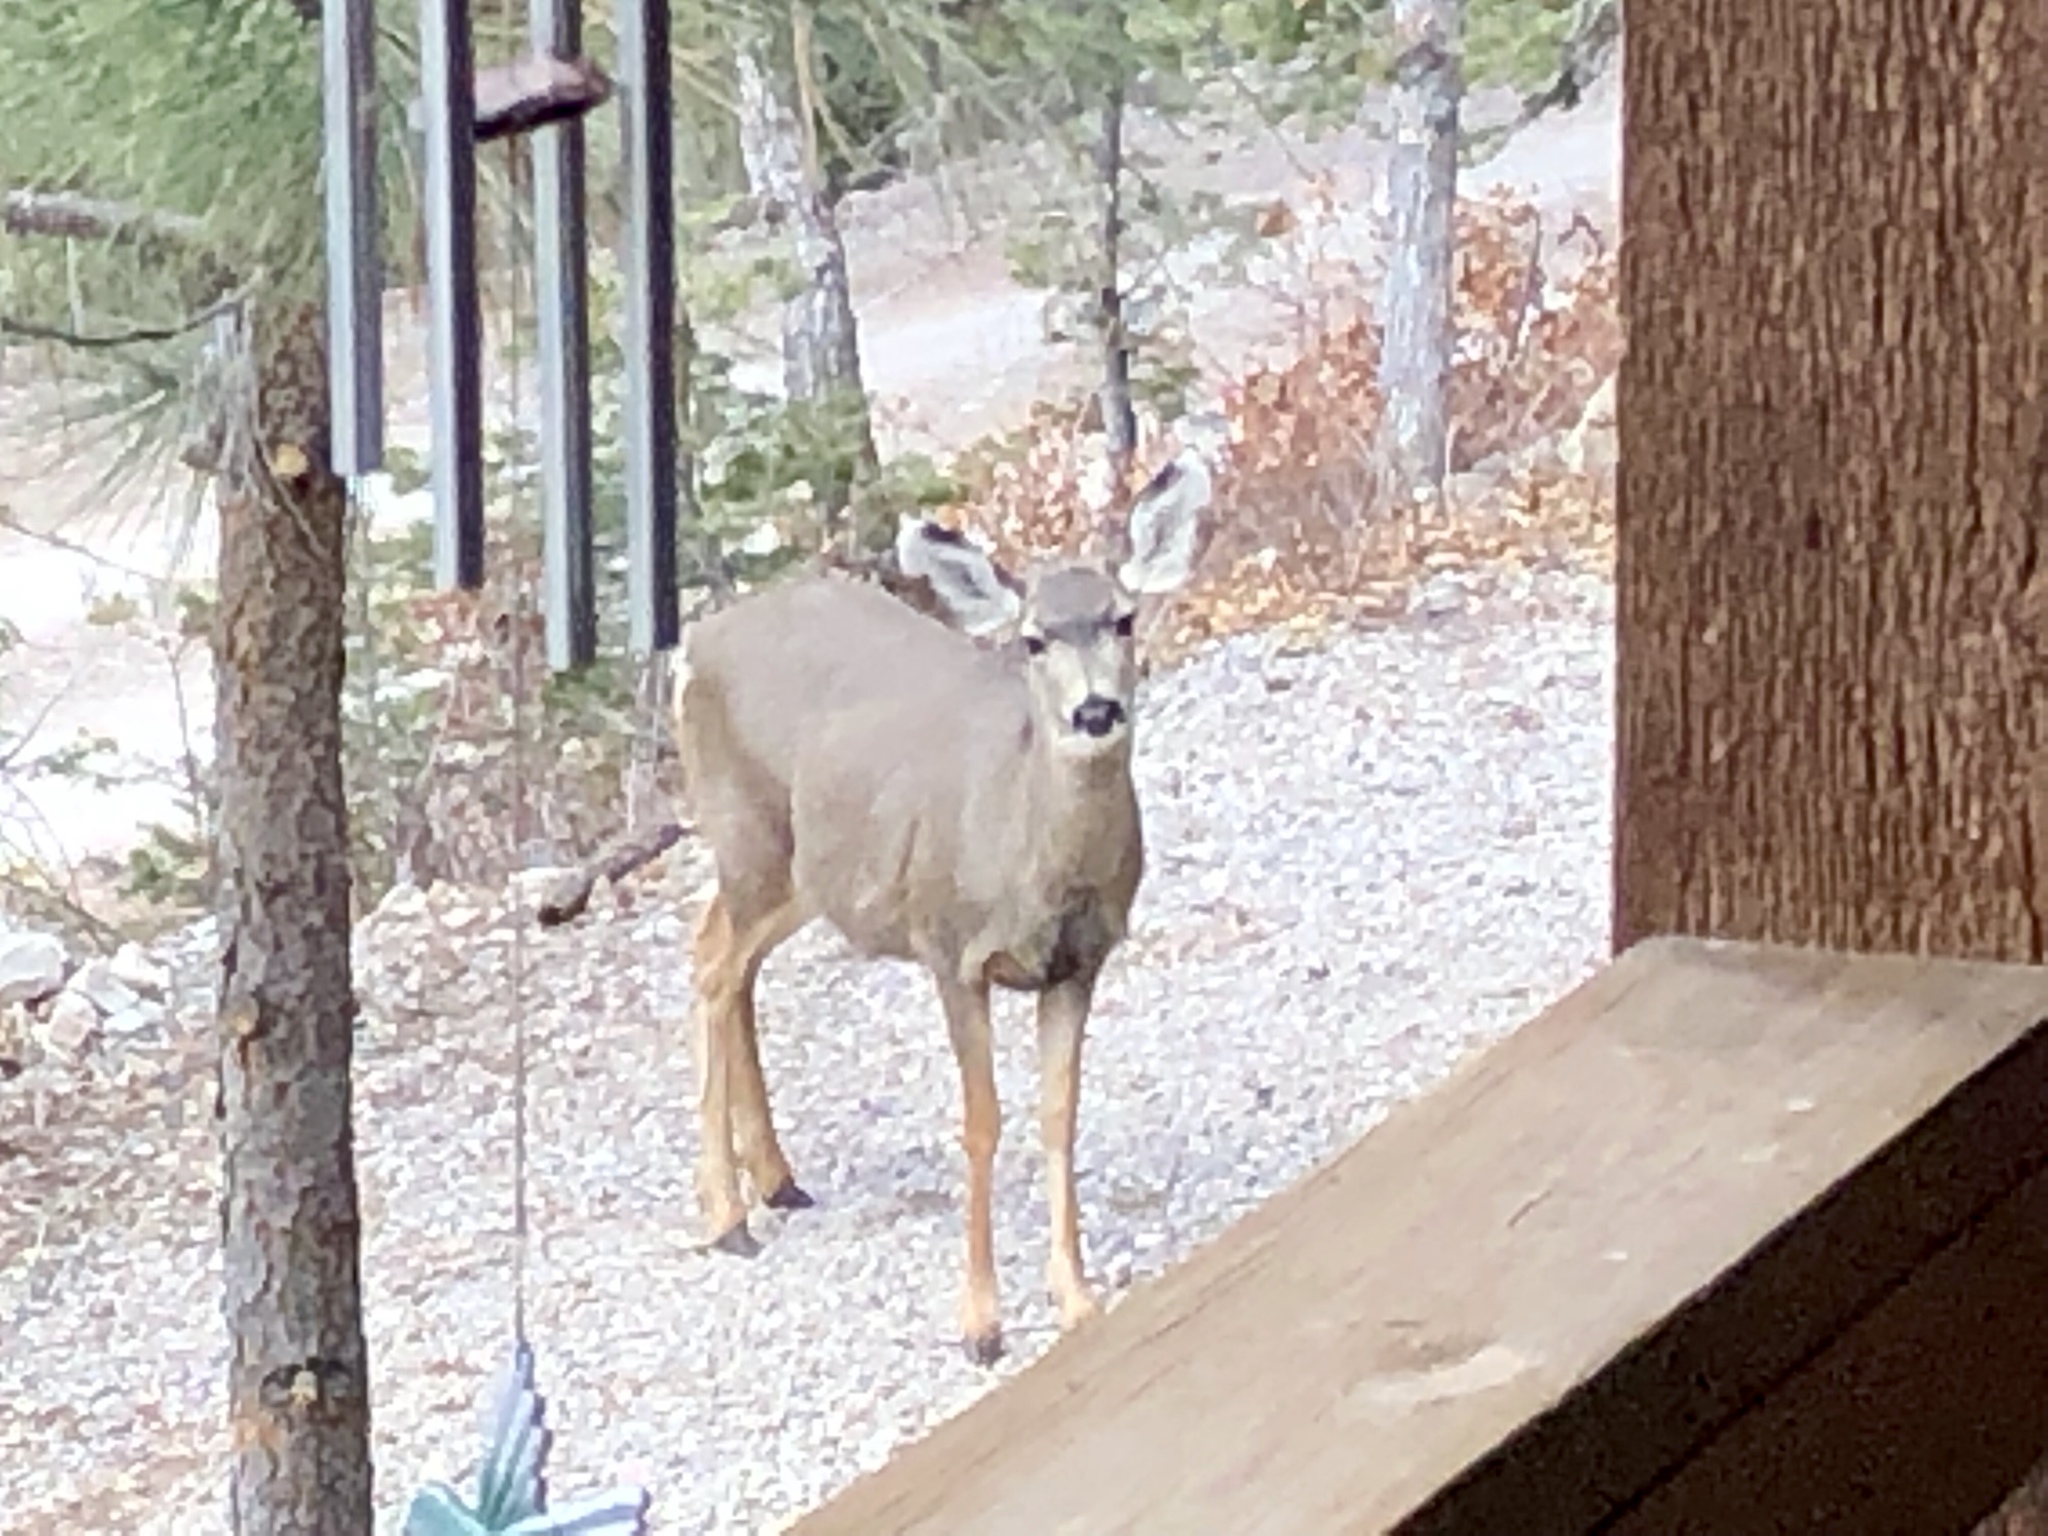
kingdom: Animalia
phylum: Chordata
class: Mammalia
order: Artiodactyla
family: Cervidae
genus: Odocoileus
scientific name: Odocoileus hemionus
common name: Mule deer
